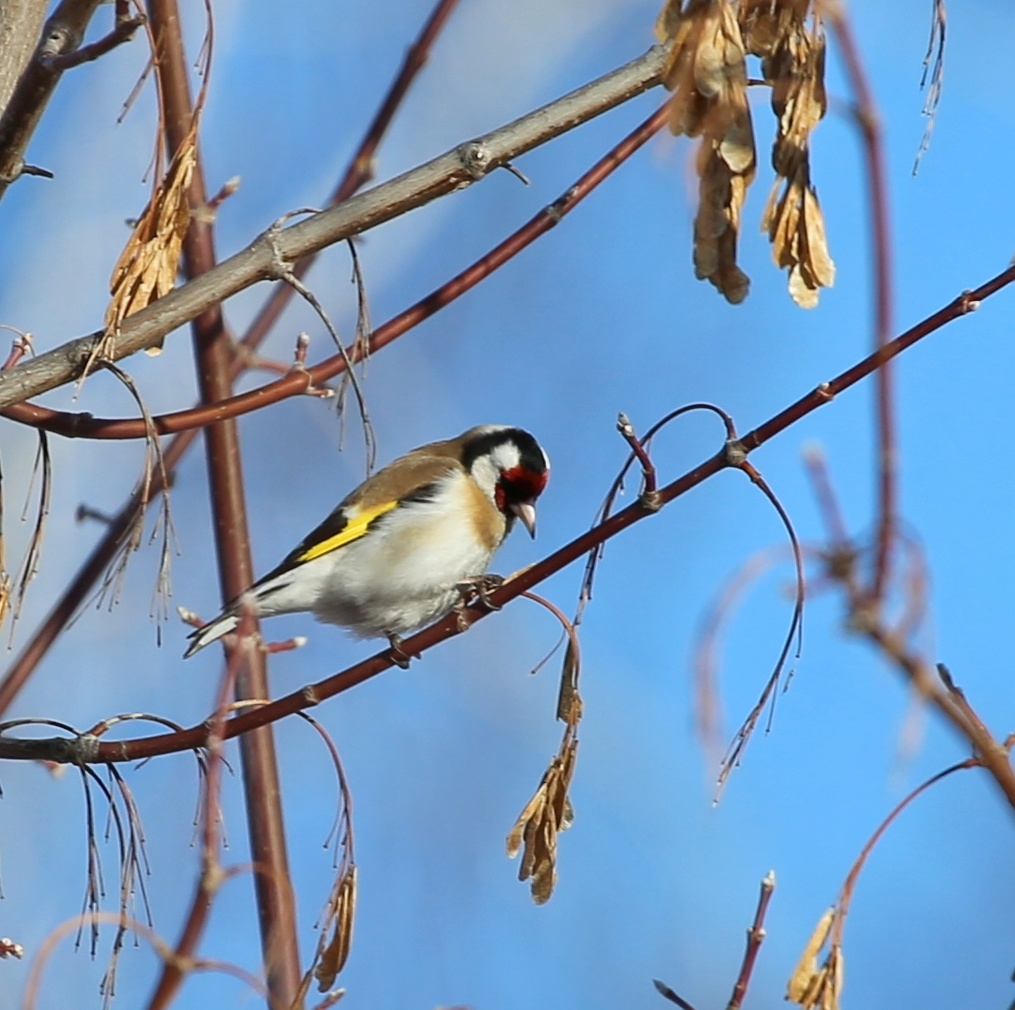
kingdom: Animalia
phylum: Chordata
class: Aves
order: Passeriformes
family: Fringillidae
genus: Carduelis
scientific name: Carduelis carduelis
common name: European goldfinch
